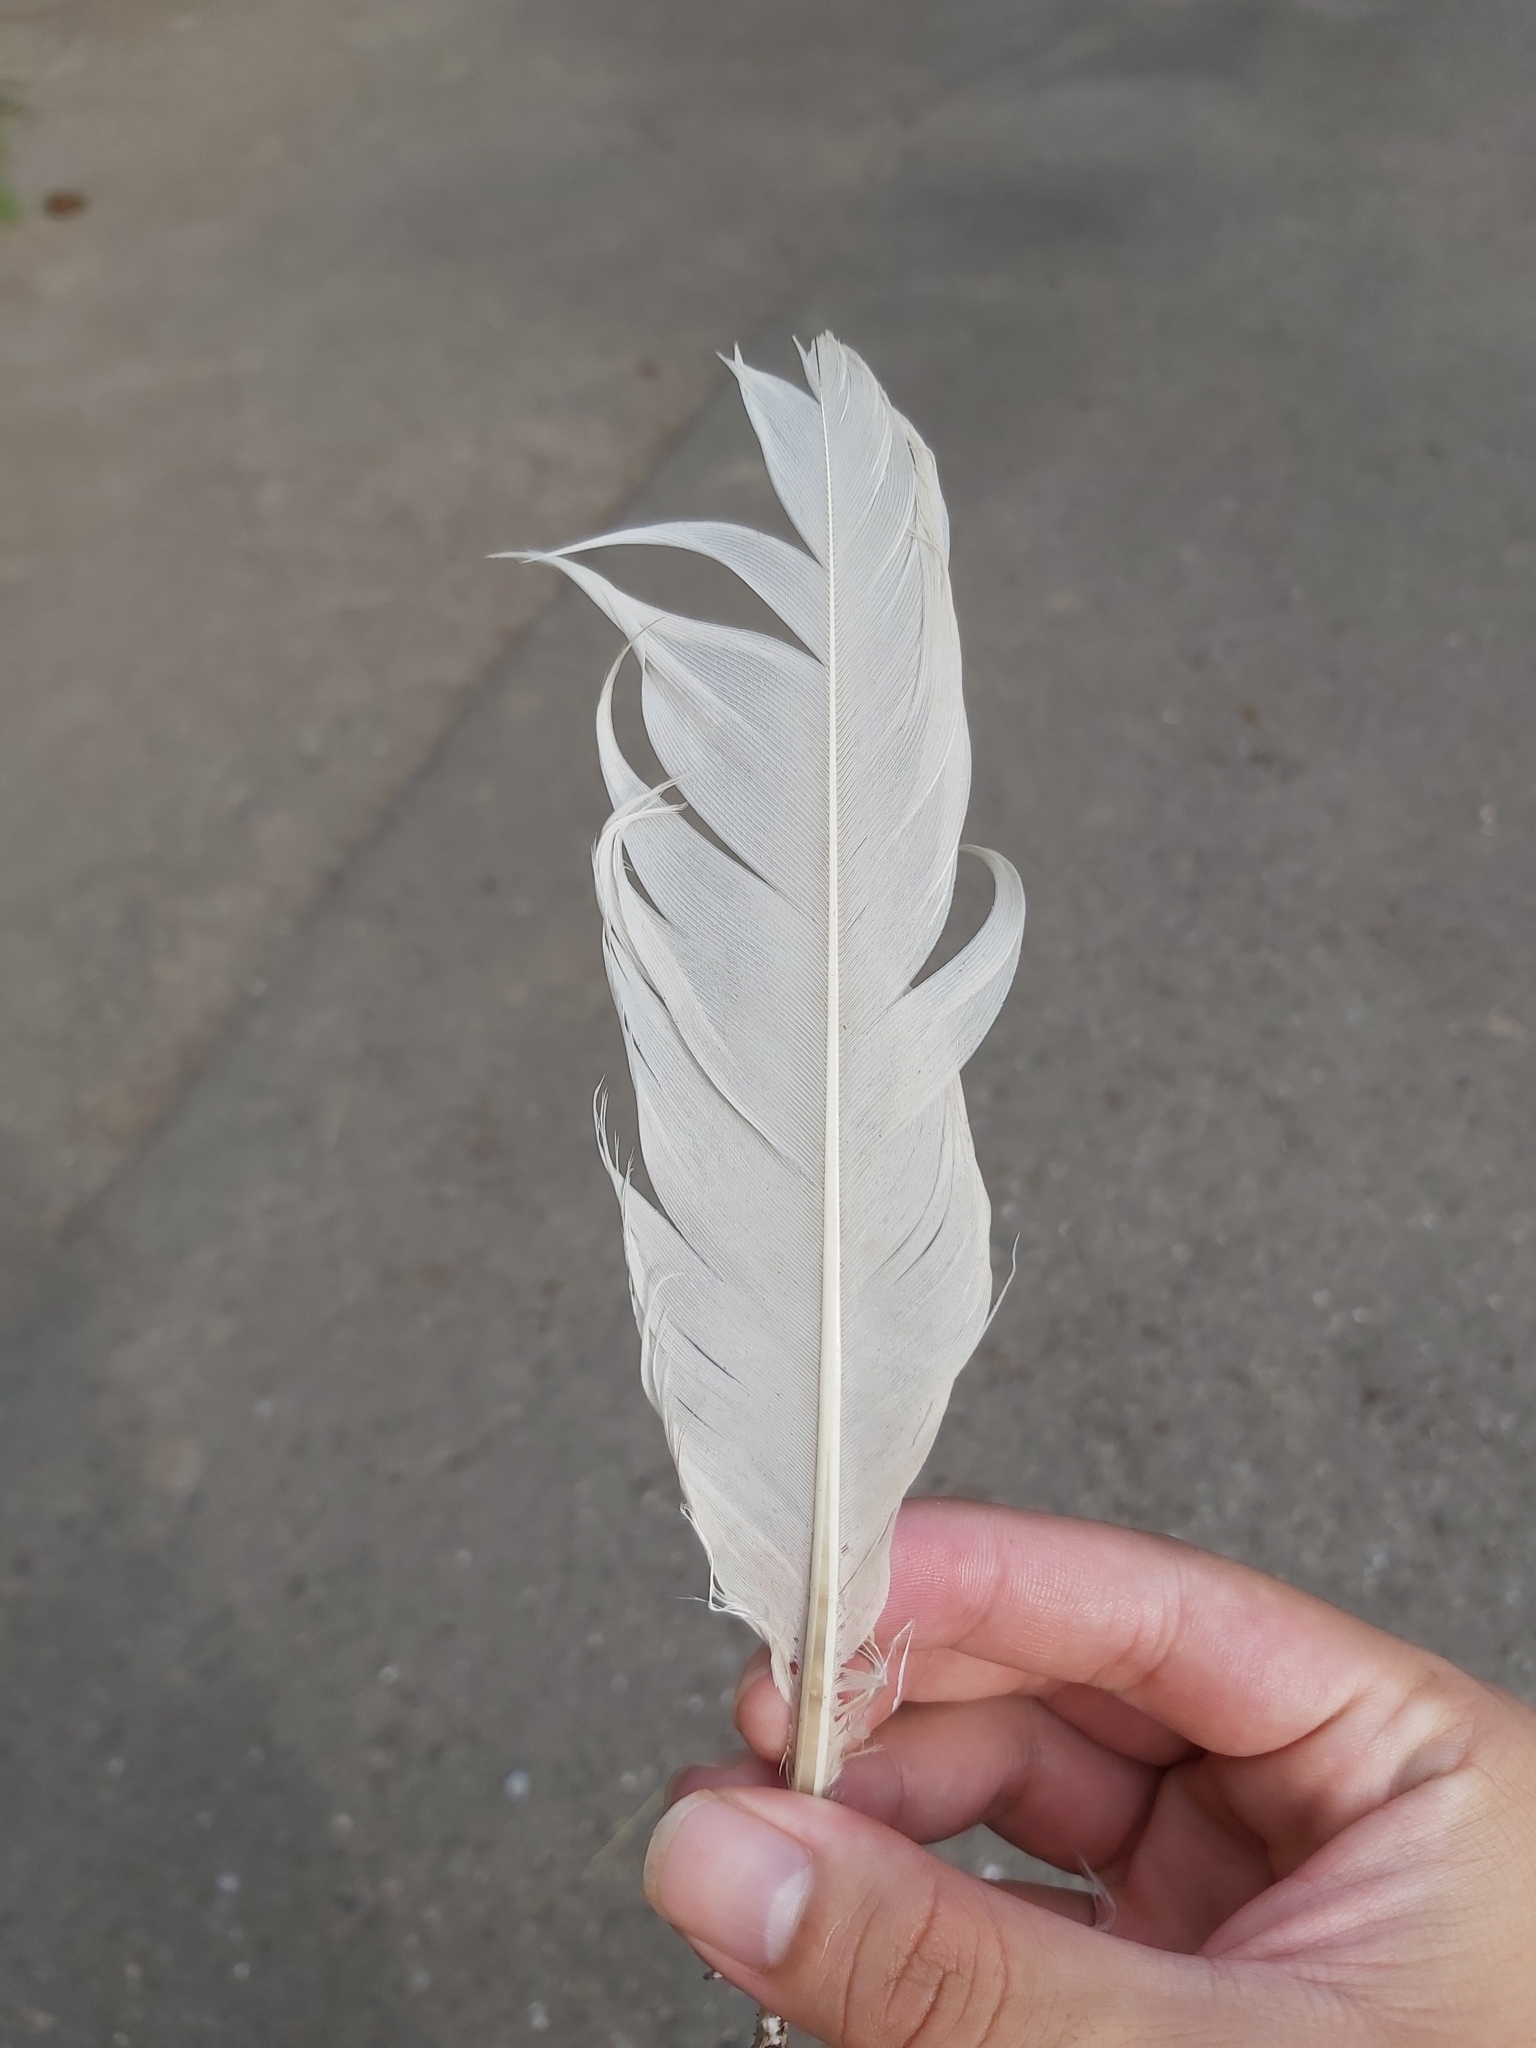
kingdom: Animalia
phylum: Chordata
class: Aves
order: Pelecaniformes
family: Threskiornithidae
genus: Threskiornis
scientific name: Threskiornis molucca
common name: Australian white ibis
